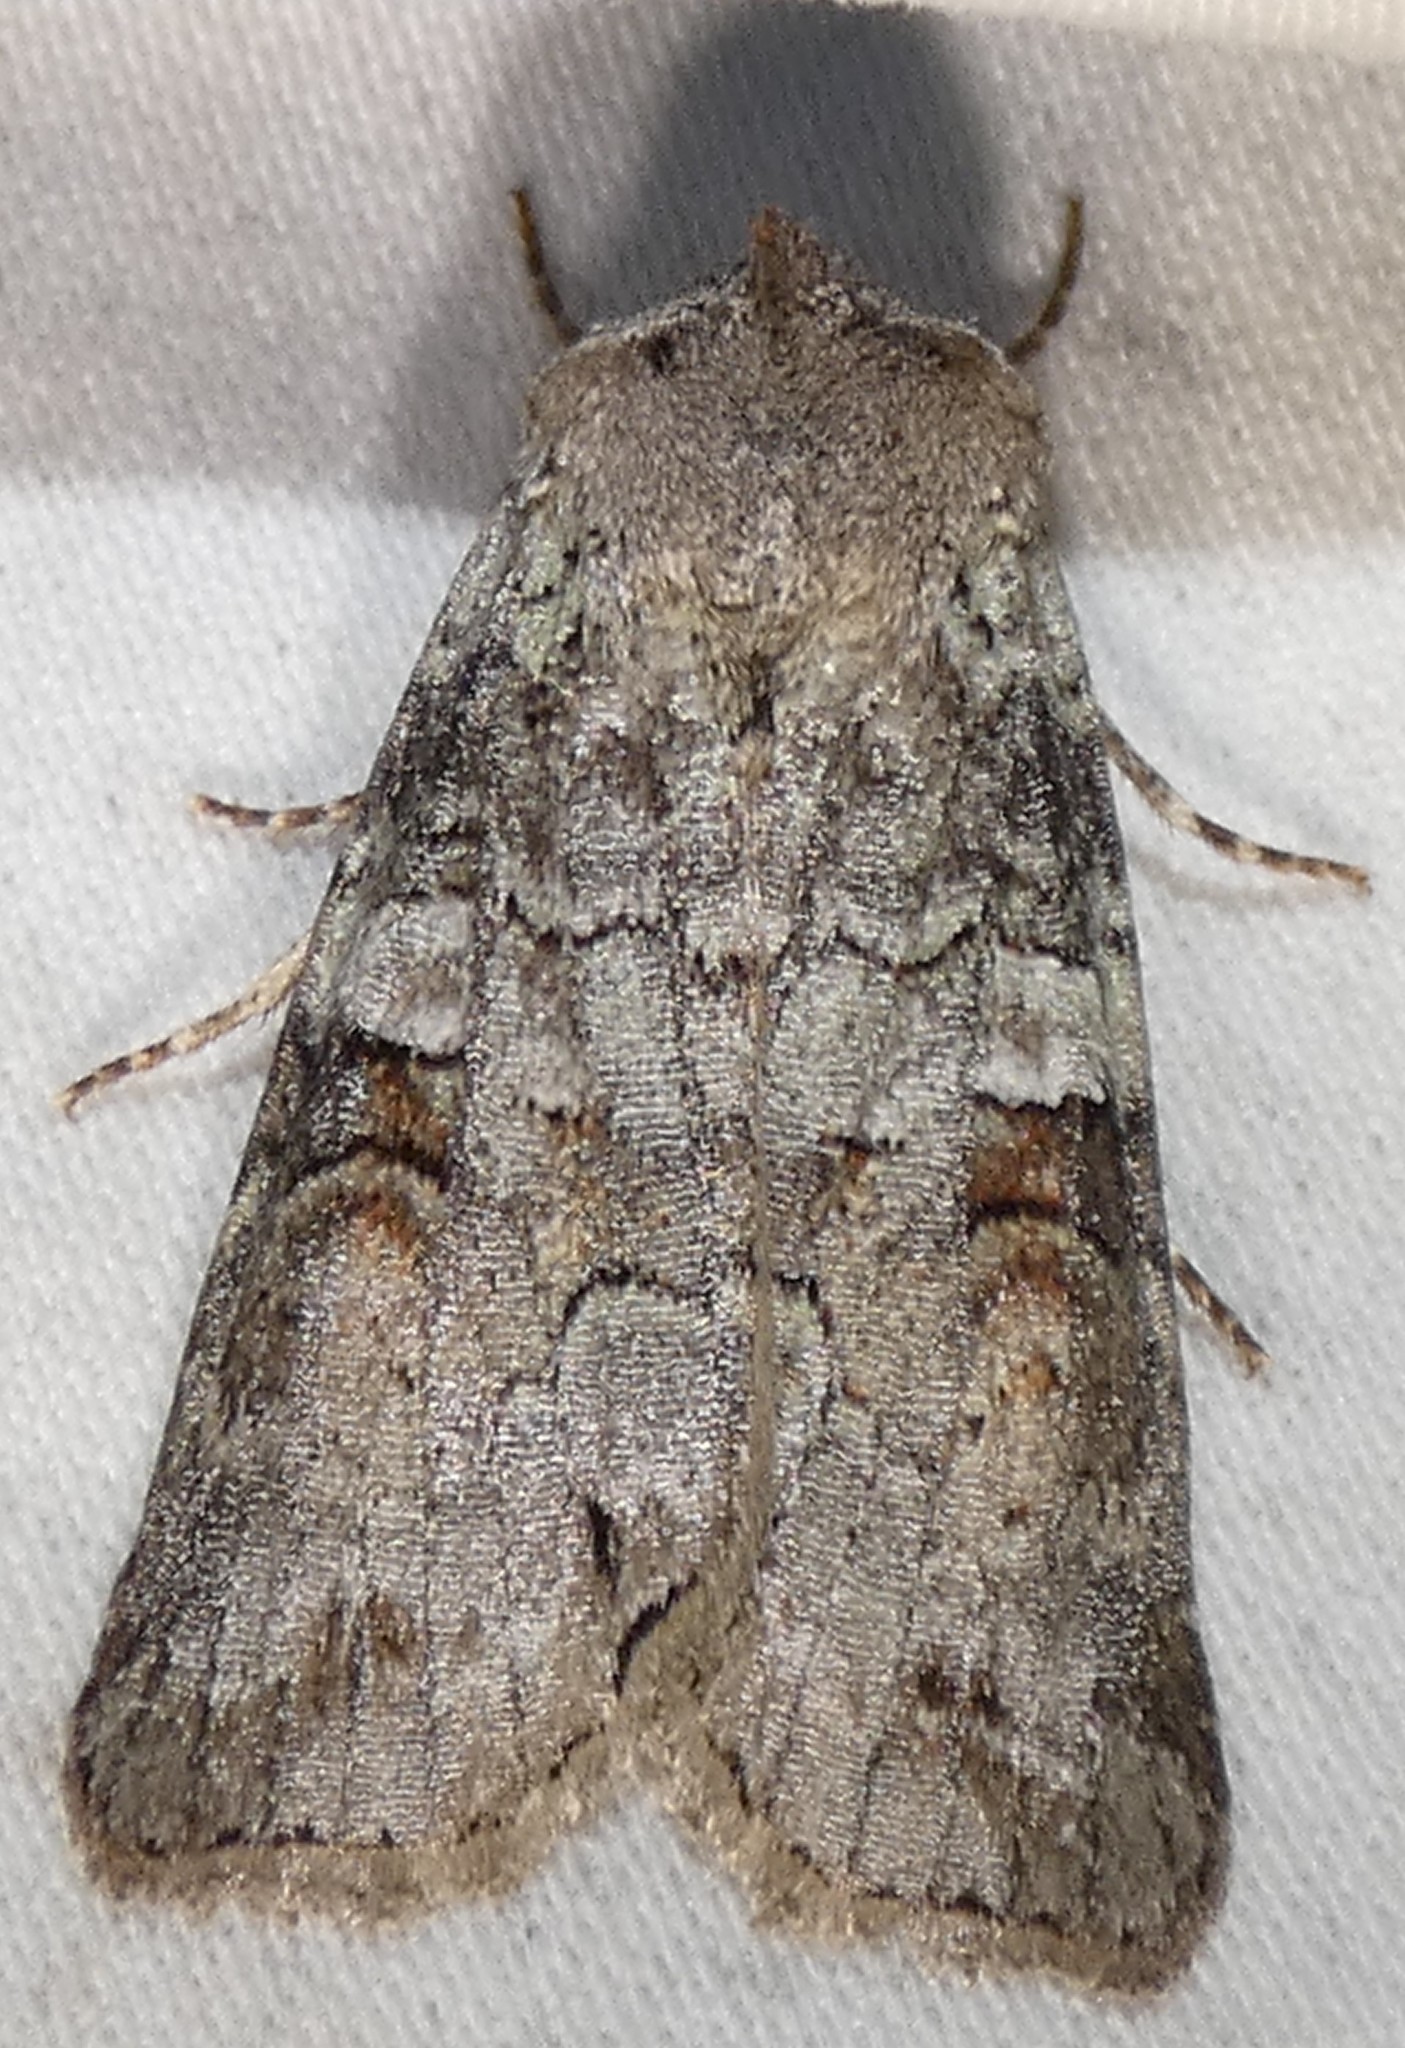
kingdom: Animalia
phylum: Arthropoda
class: Insecta
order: Lepidoptera
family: Noctuidae
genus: Egira
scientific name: Egira alternans
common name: Alternate woodling
